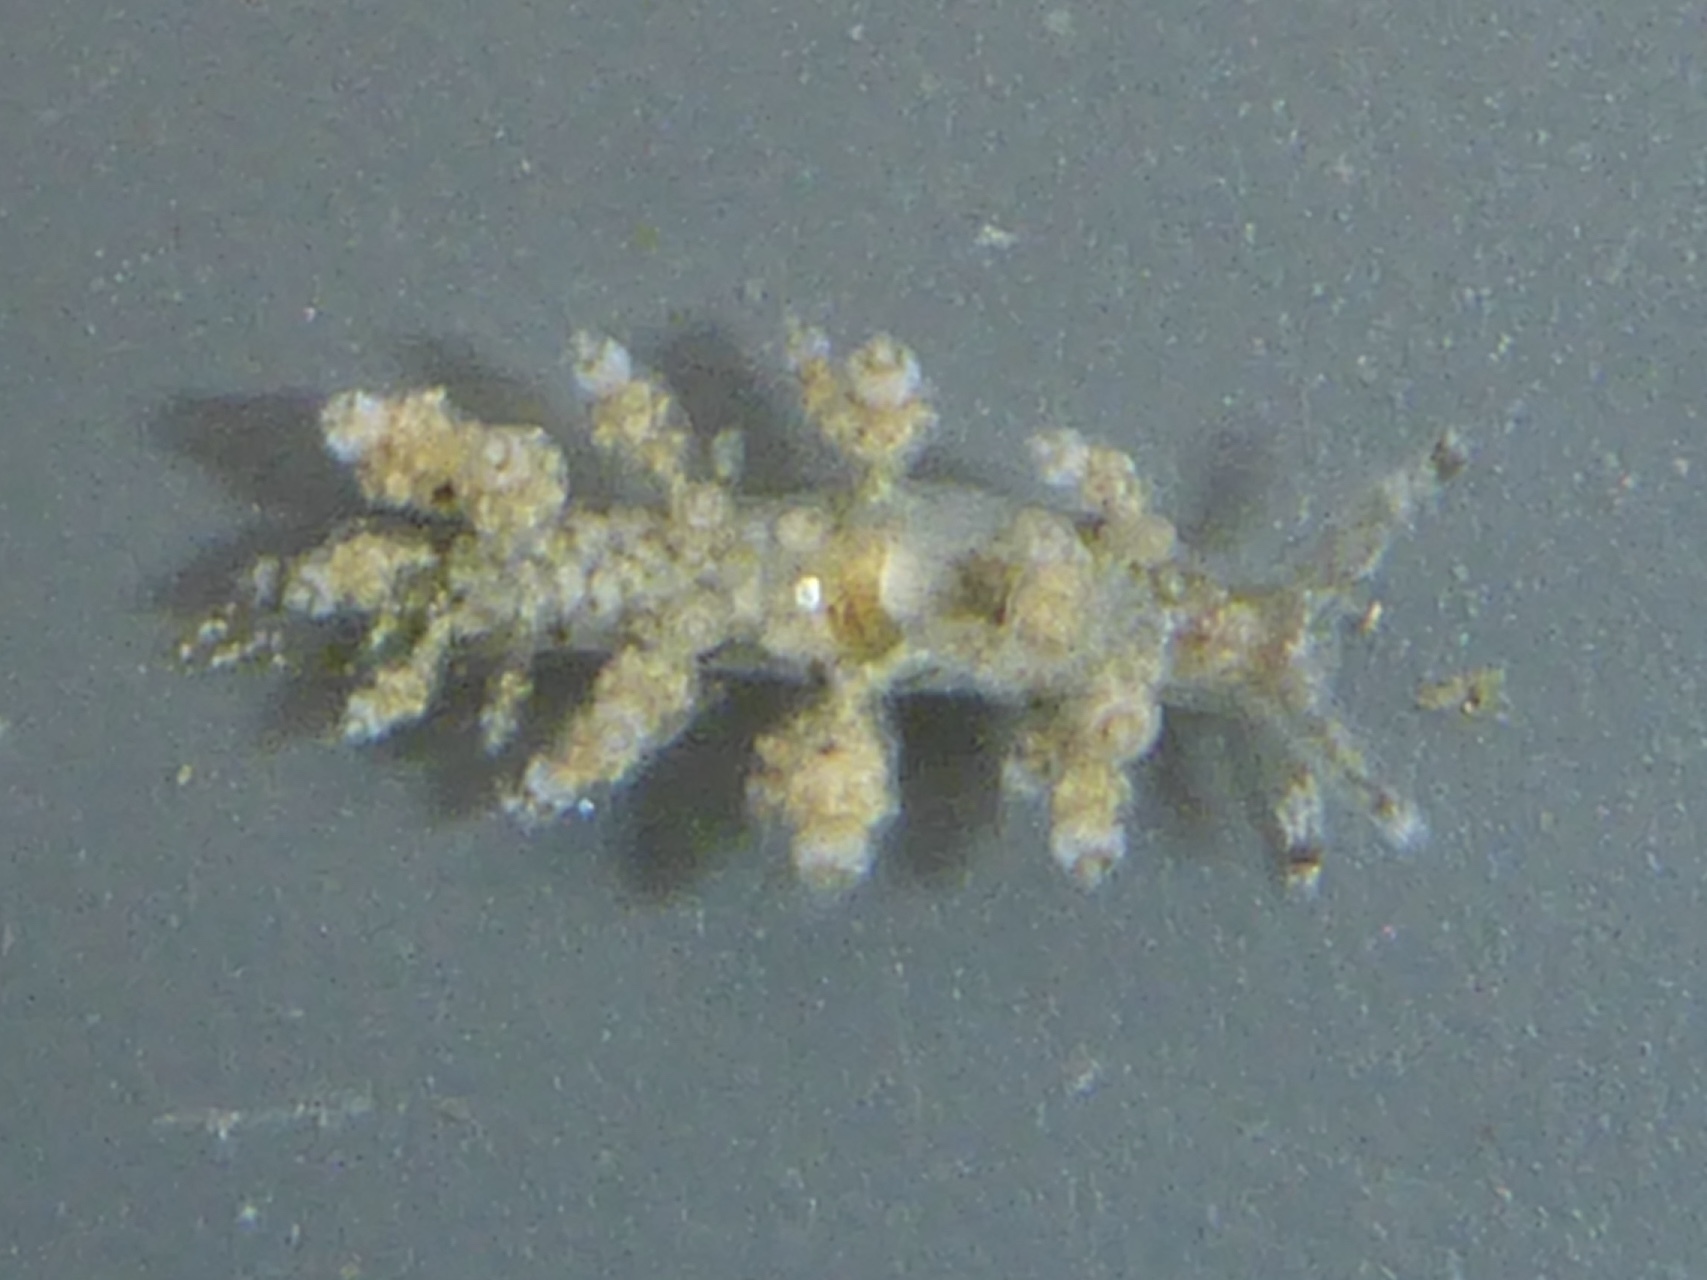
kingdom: Animalia
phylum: Mollusca
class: Gastropoda
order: Nudibranchia
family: Eubranchidae
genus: Eubranchus
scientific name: Eubranchus rustyus
